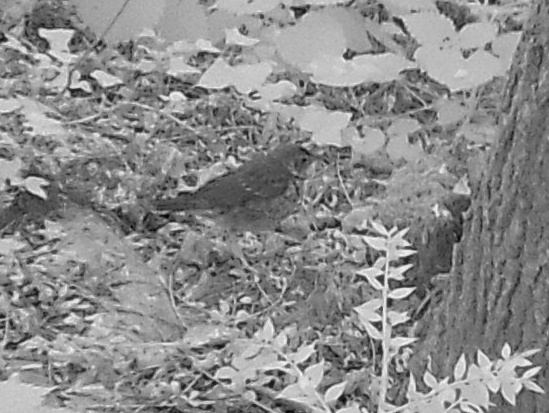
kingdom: Animalia
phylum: Chordata
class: Aves
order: Passeriformes
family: Turdidae
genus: Turdus
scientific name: Turdus philomelos
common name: Song thrush
